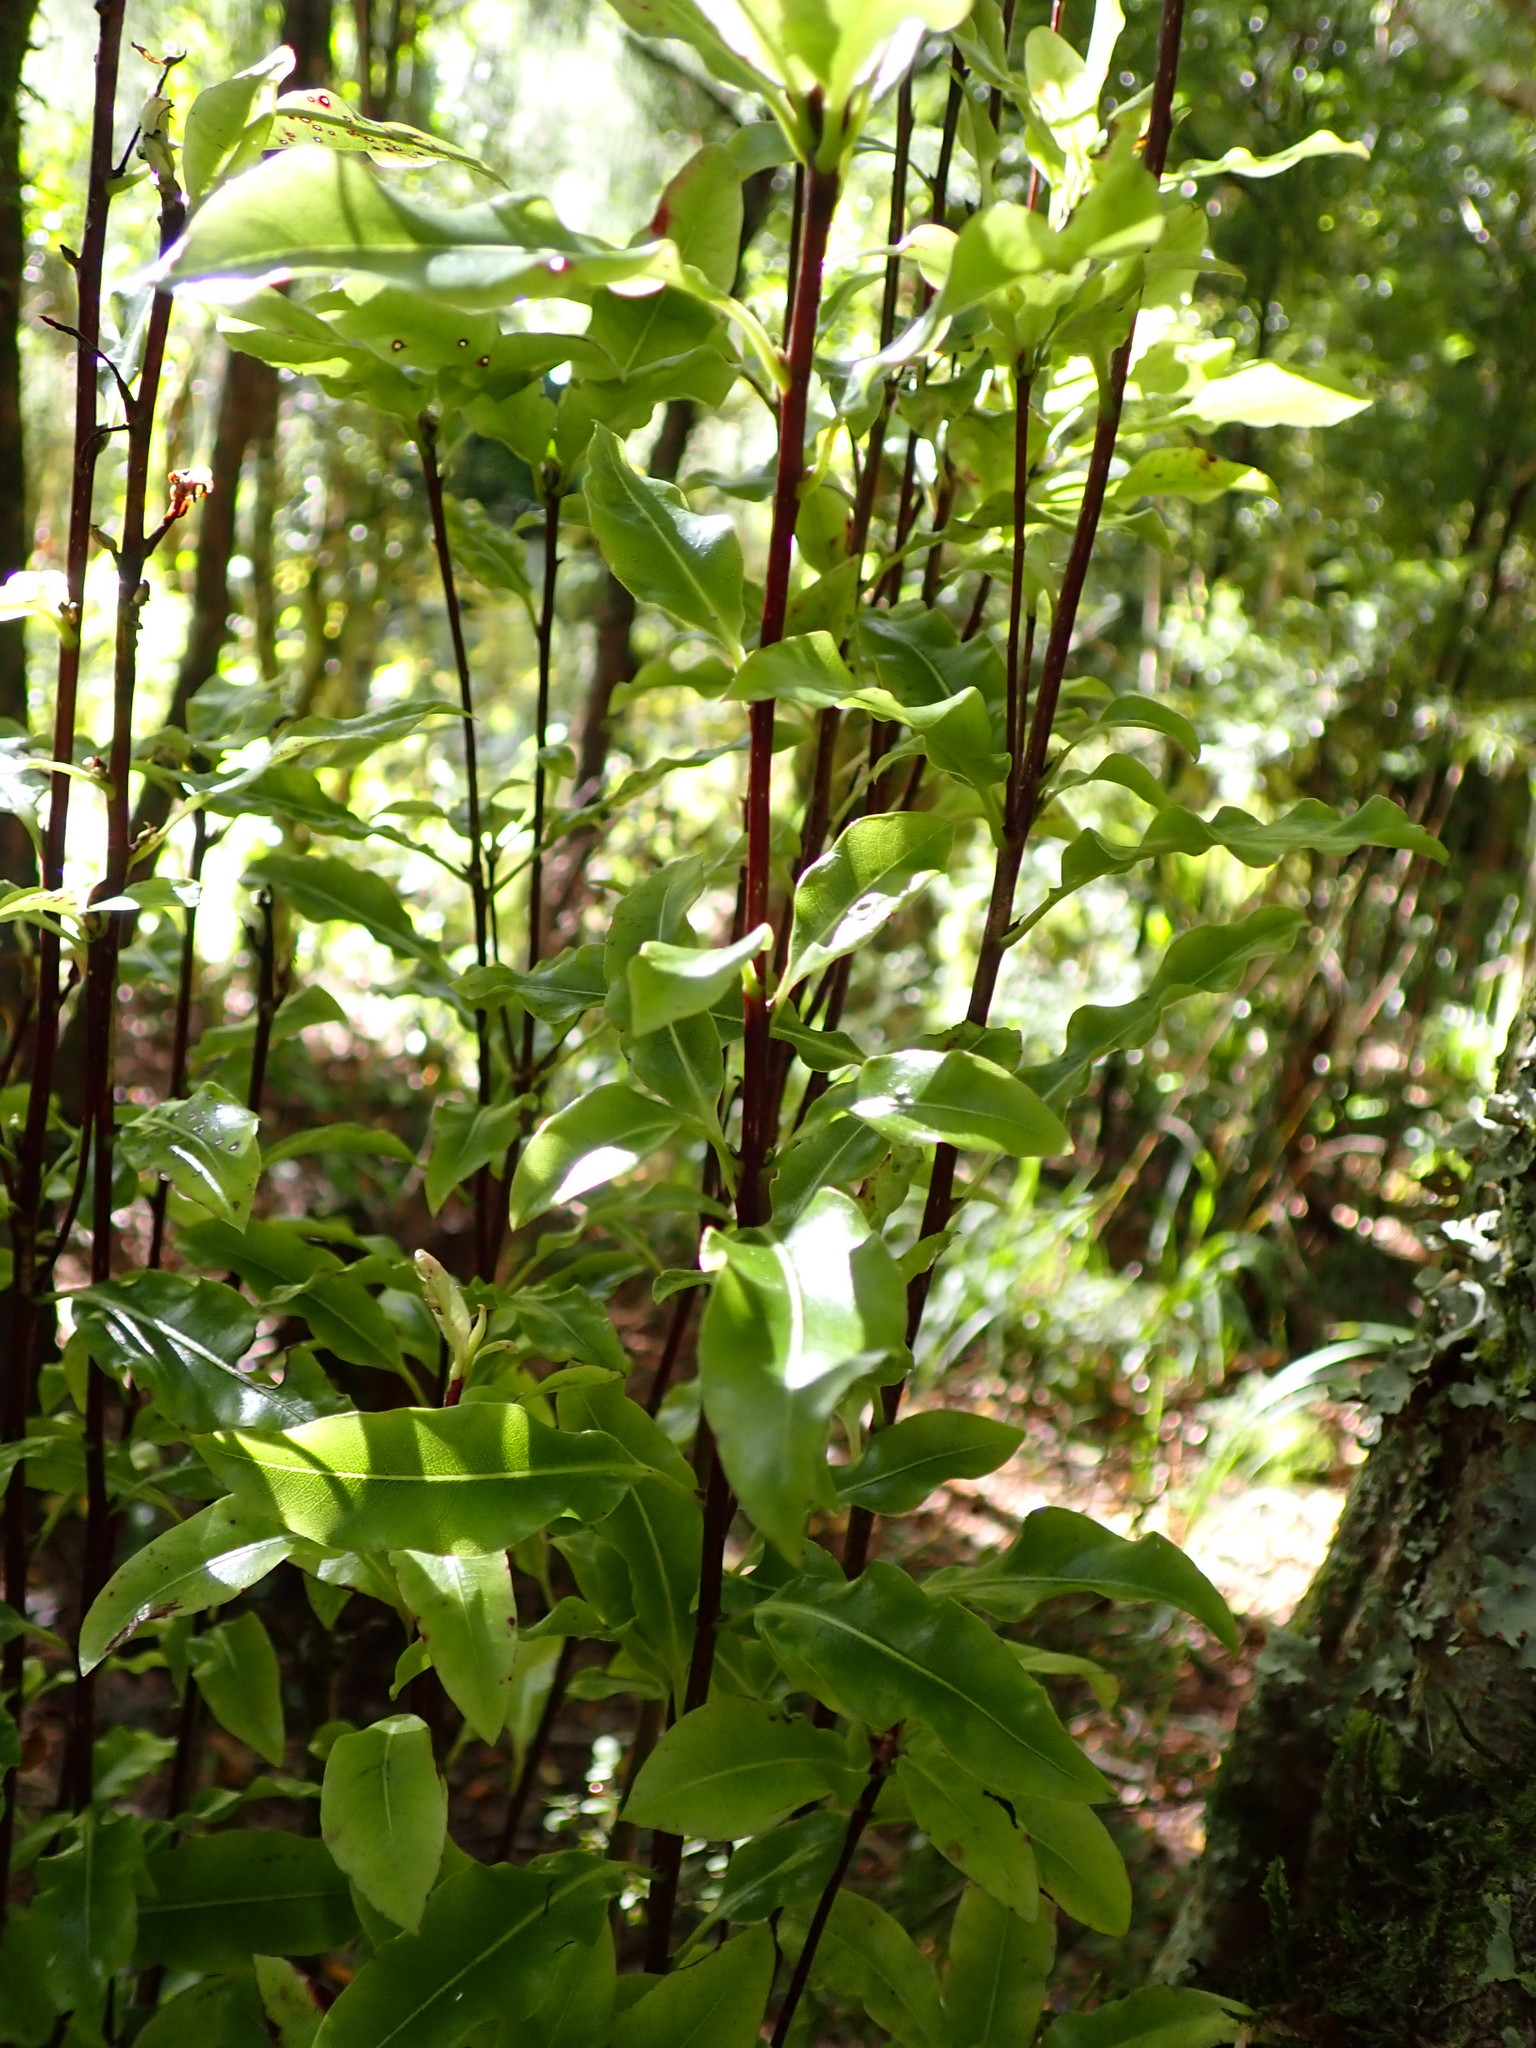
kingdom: Plantae
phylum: Tracheophyta
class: Magnoliopsida
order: Apiales
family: Pittosporaceae
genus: Pittosporum
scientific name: Pittosporum eugenioides
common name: Lemonwood
